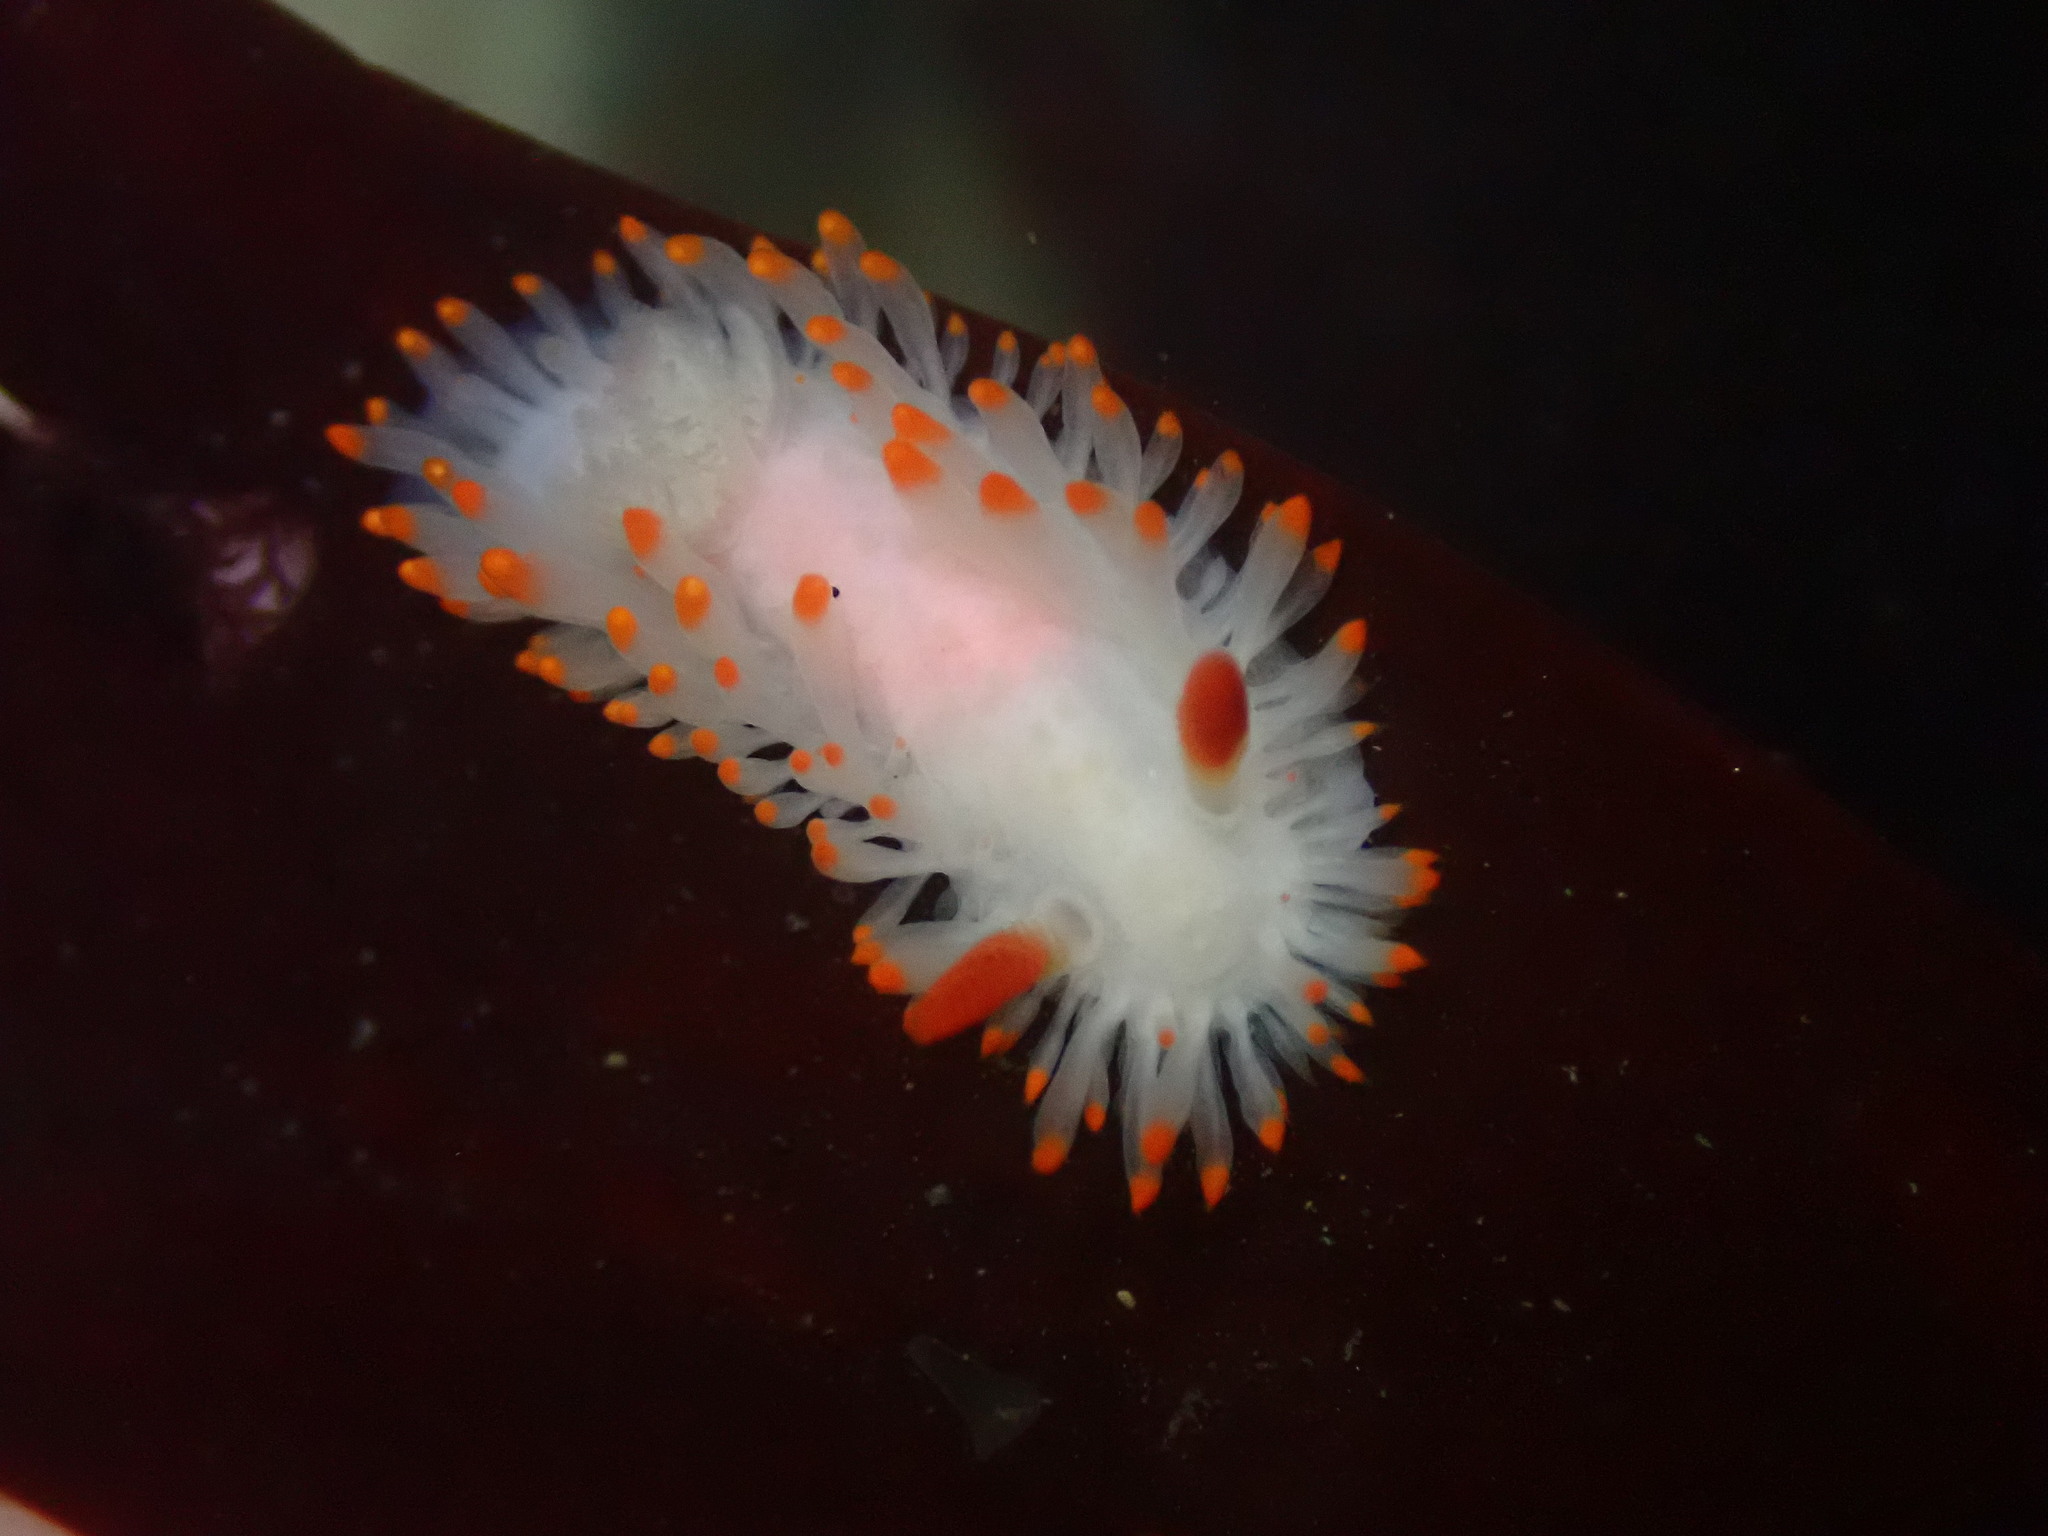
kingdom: Animalia
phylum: Mollusca
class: Gastropoda
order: Nudibranchia
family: Polyceridae
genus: Limacia
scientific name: Limacia cockerelli
